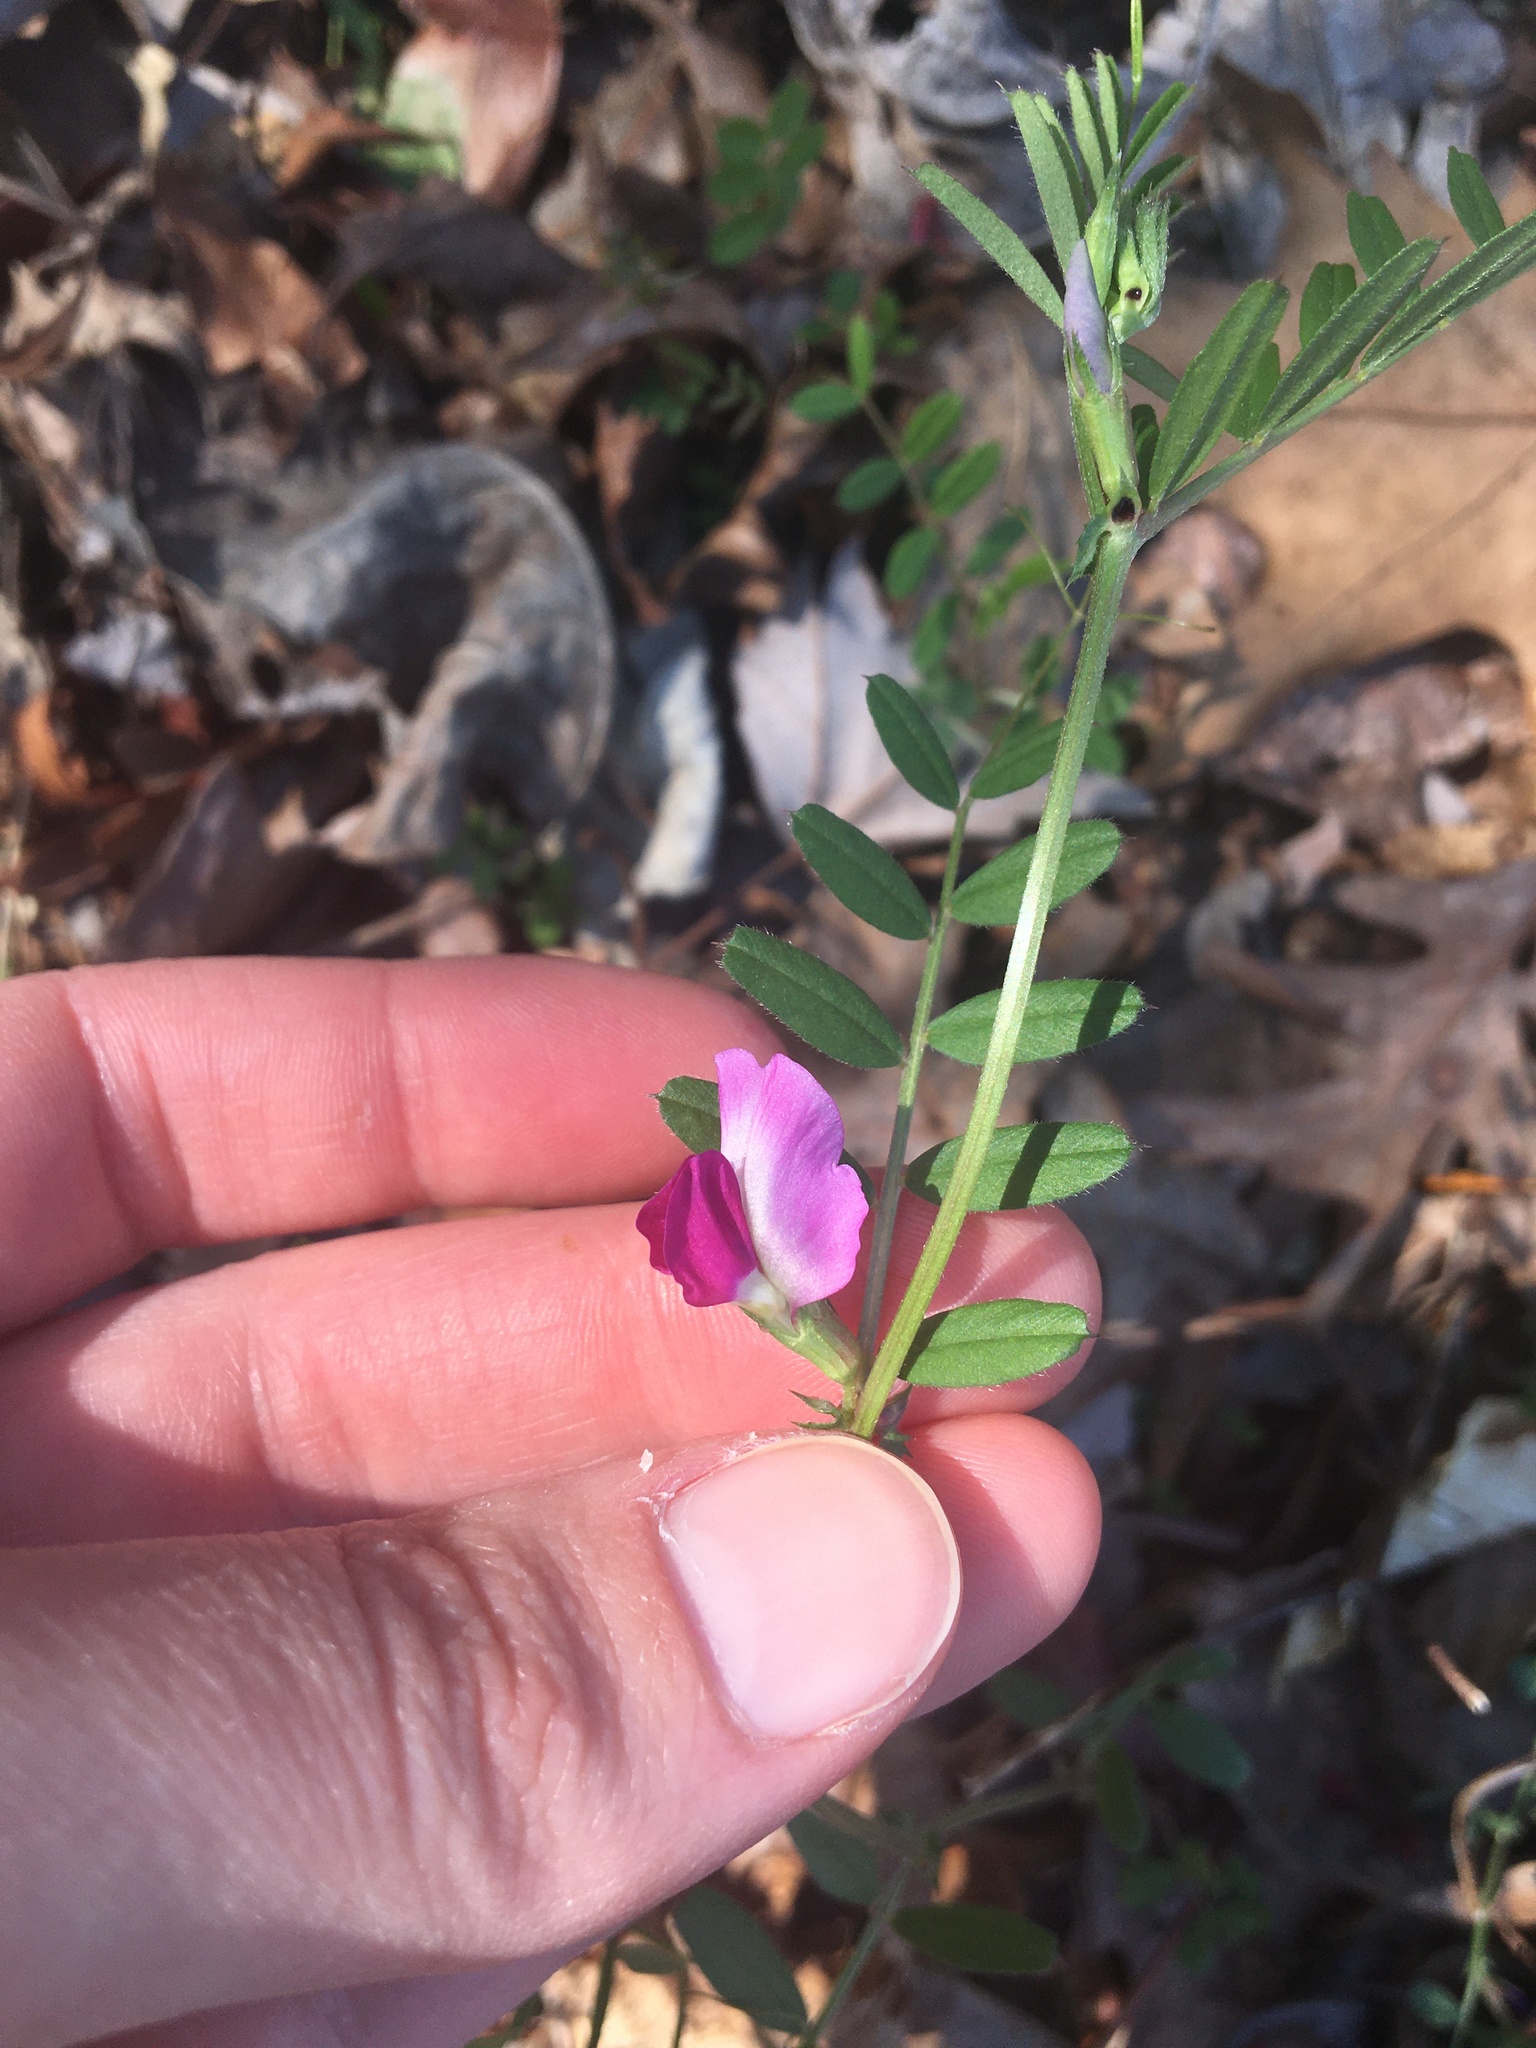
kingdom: Plantae
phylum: Tracheophyta
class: Magnoliopsida
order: Fabales
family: Fabaceae
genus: Vicia
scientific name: Vicia sativa
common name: Garden vetch
